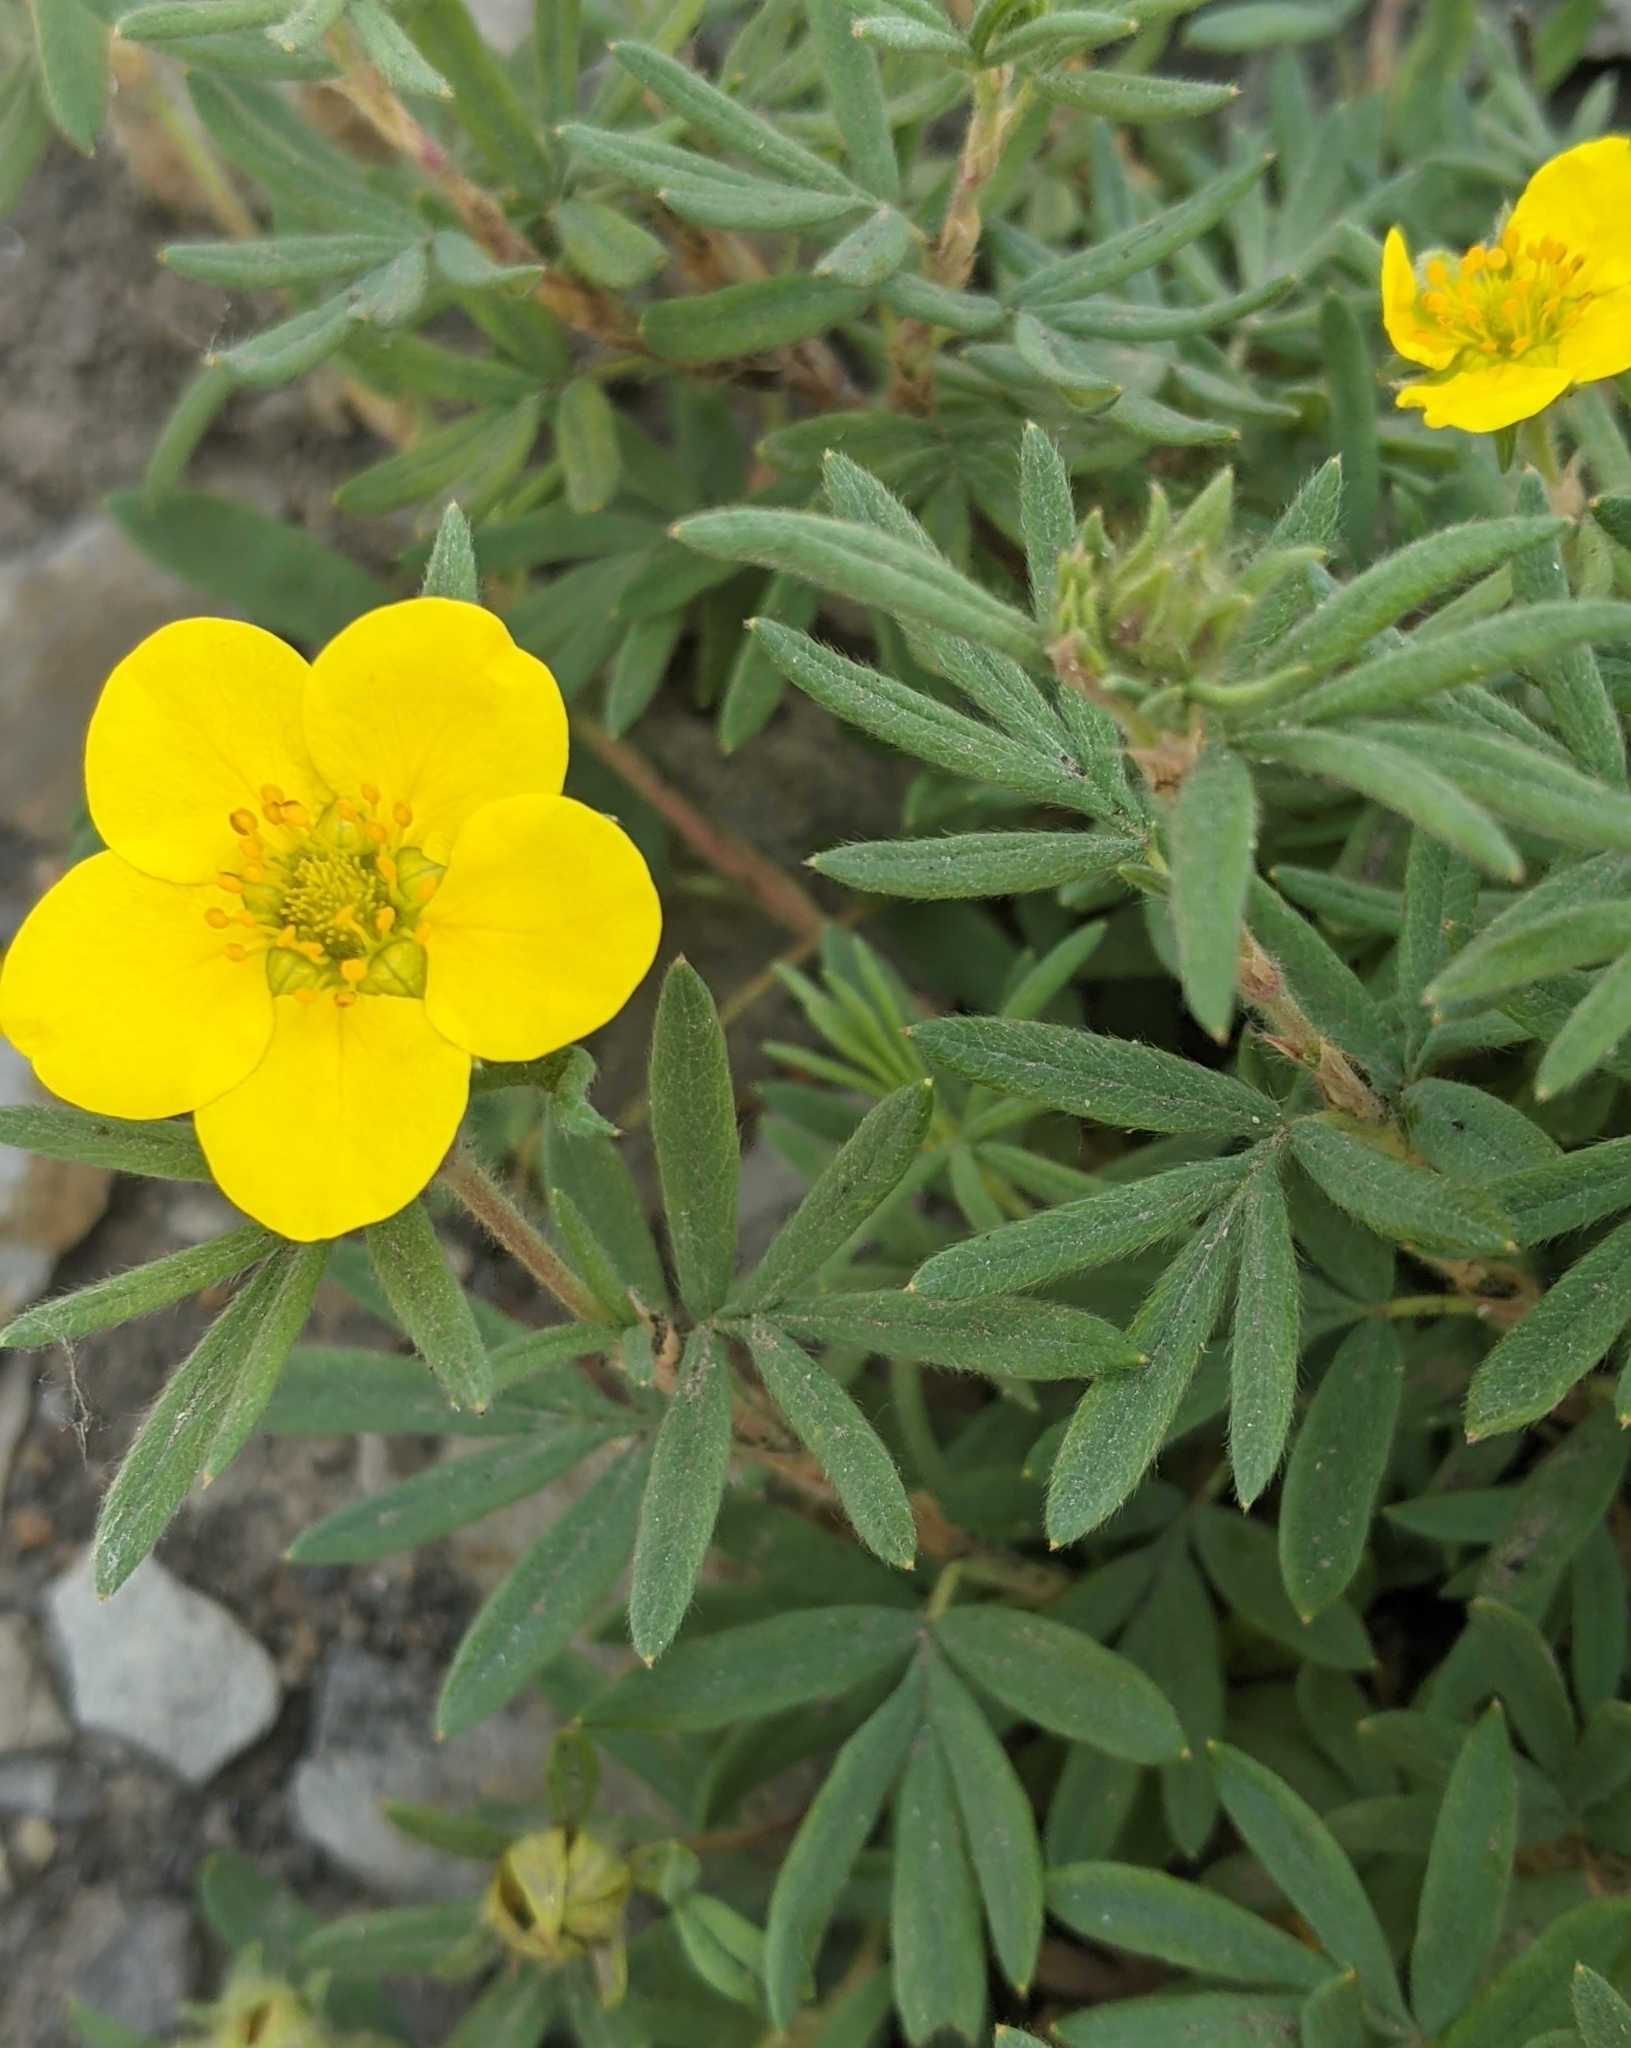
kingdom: Plantae
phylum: Tracheophyta
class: Magnoliopsida
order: Rosales
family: Rosaceae
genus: Dasiphora
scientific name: Dasiphora fruticosa
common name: Shrubby cinquefoil
